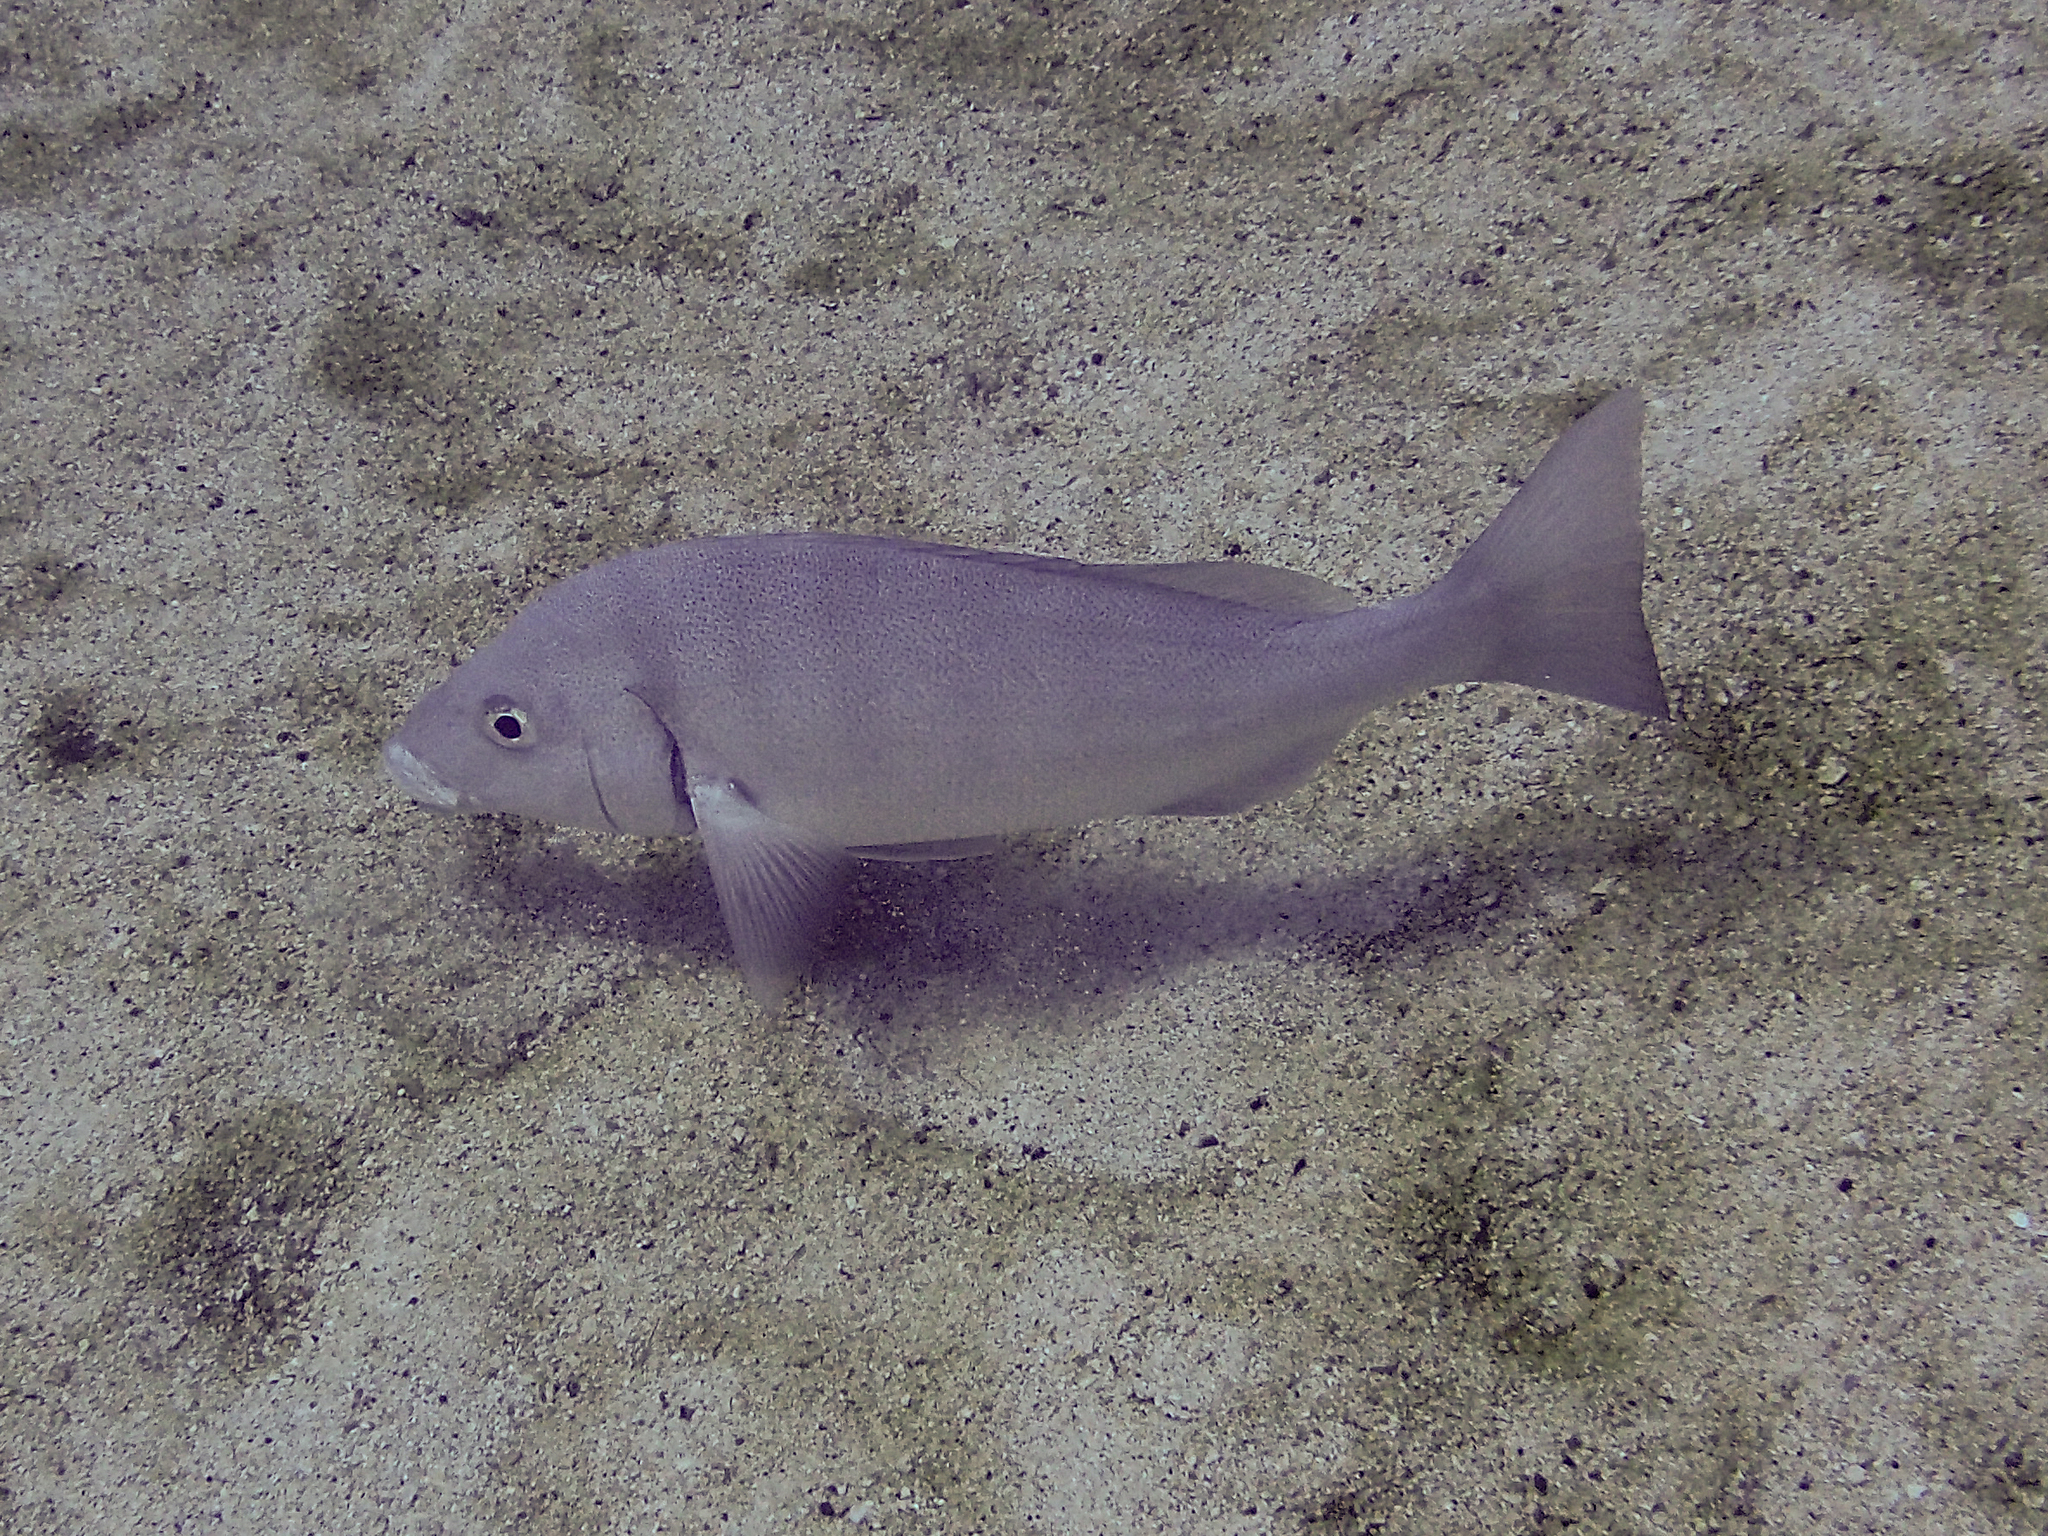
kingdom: Animalia
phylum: Chordata
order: Perciformes
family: Lutjanidae
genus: Lutjanus
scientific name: Lutjanus novemfasciatus
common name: Pacific dog snapper
